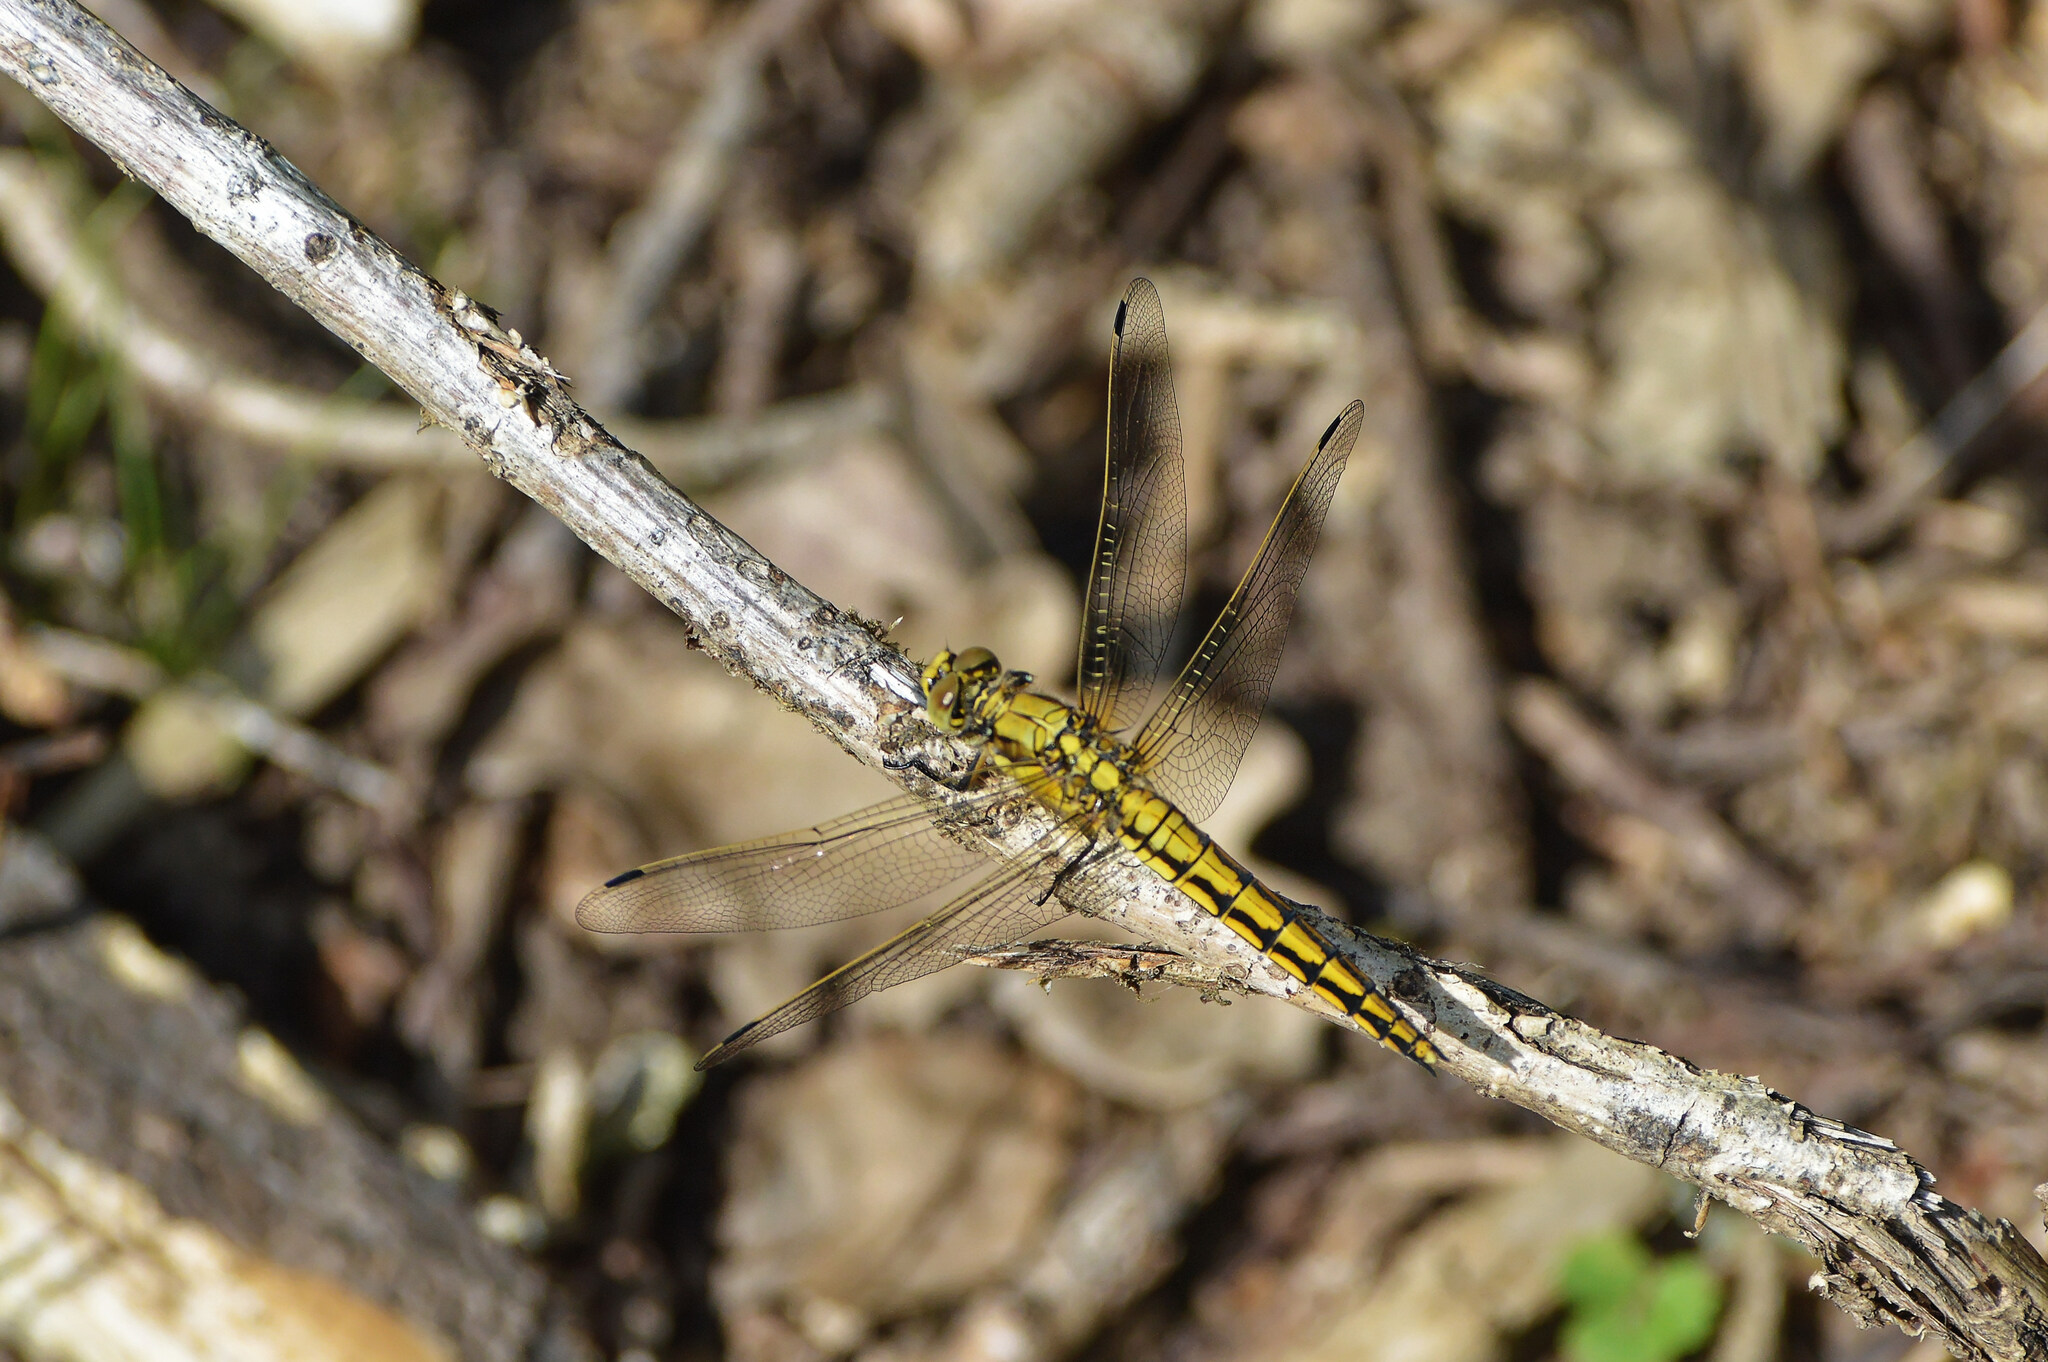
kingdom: Animalia
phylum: Arthropoda
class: Insecta
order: Odonata
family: Libellulidae
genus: Orthetrum
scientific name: Orthetrum cancellatum
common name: Black-tailed skimmer
